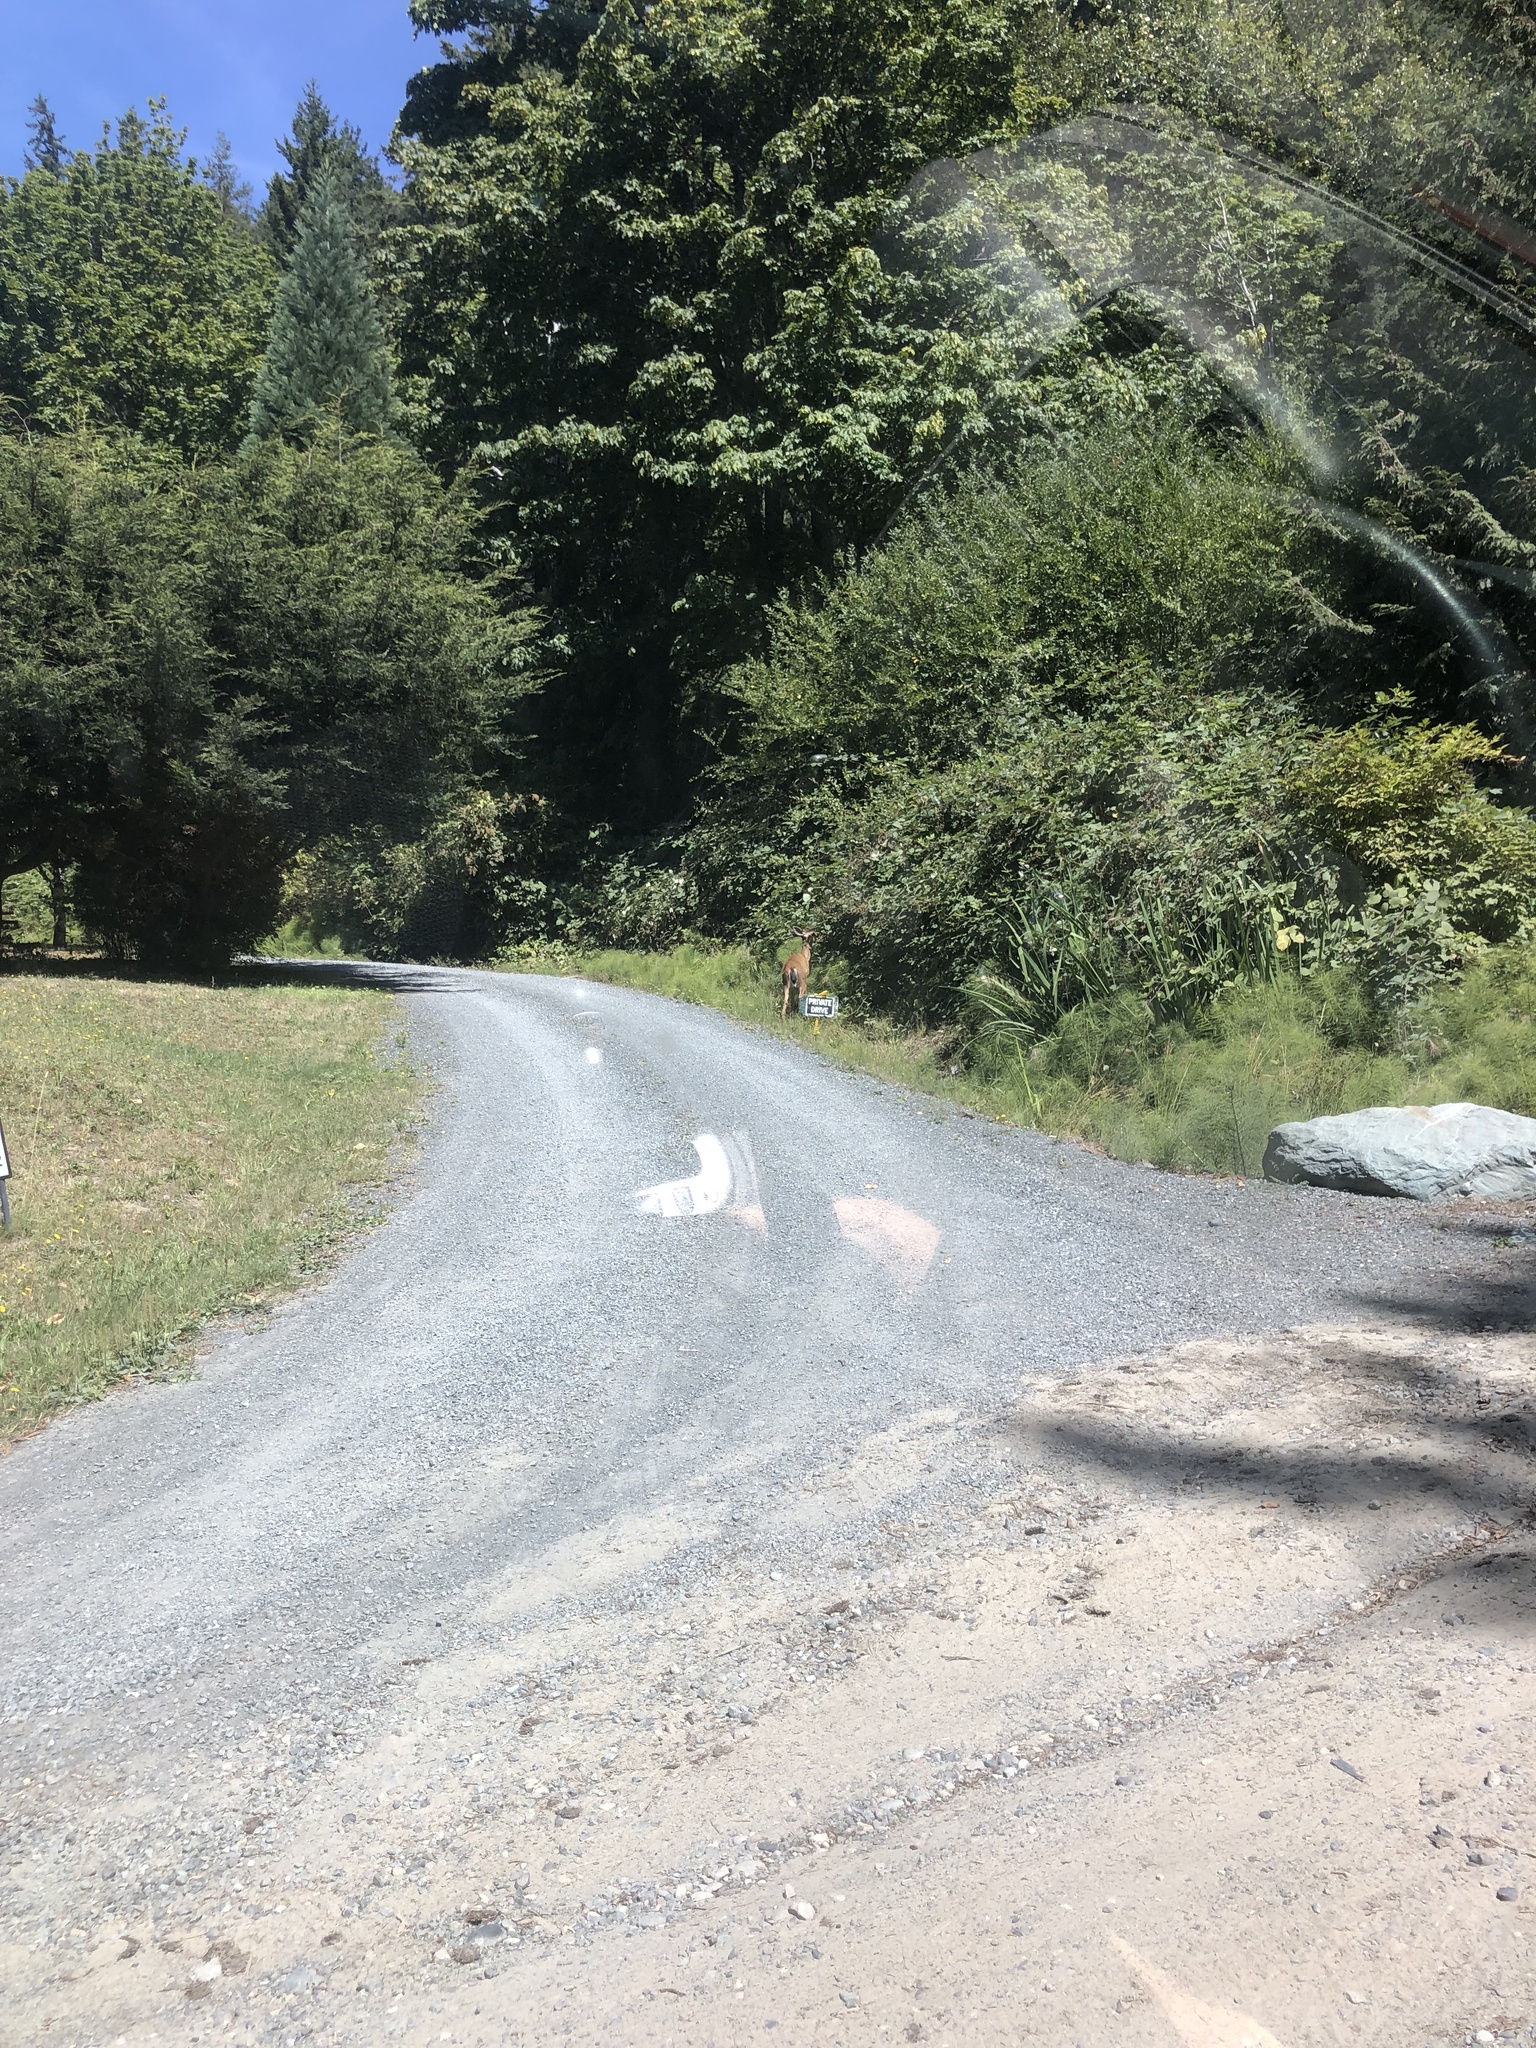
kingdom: Animalia
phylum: Chordata
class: Mammalia
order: Artiodactyla
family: Cervidae
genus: Odocoileus
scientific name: Odocoileus hemionus
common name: Mule deer
